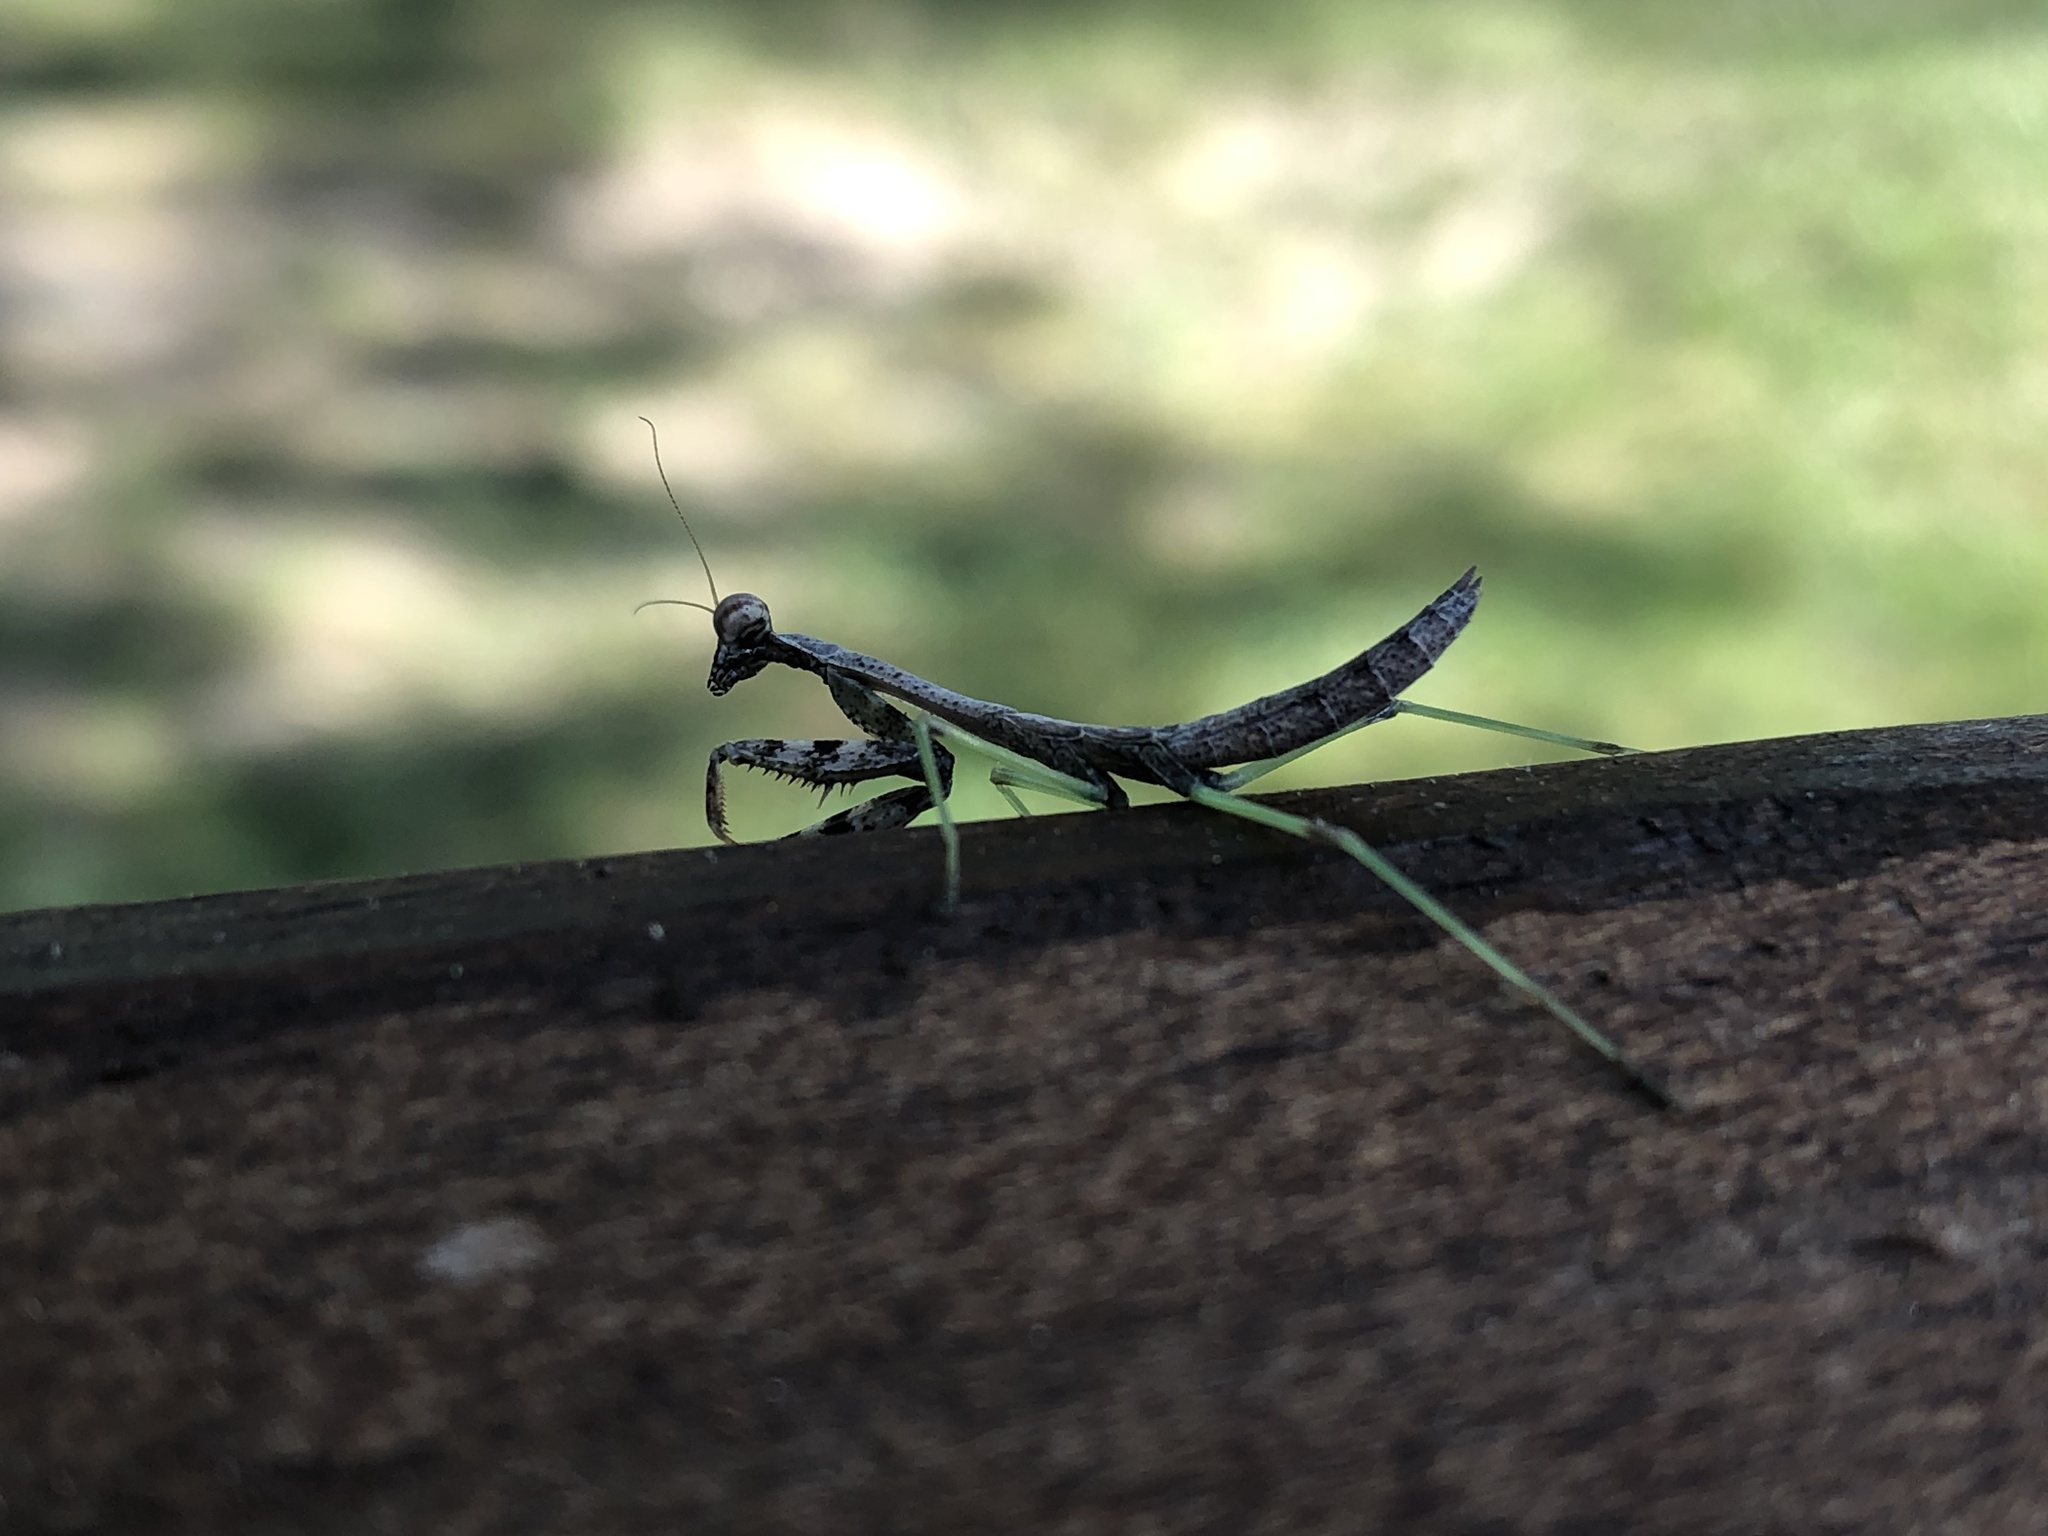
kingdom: Animalia
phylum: Arthropoda
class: Insecta
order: Mantodea
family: Mantidae
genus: Stagmomantis
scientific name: Stagmomantis carolina
